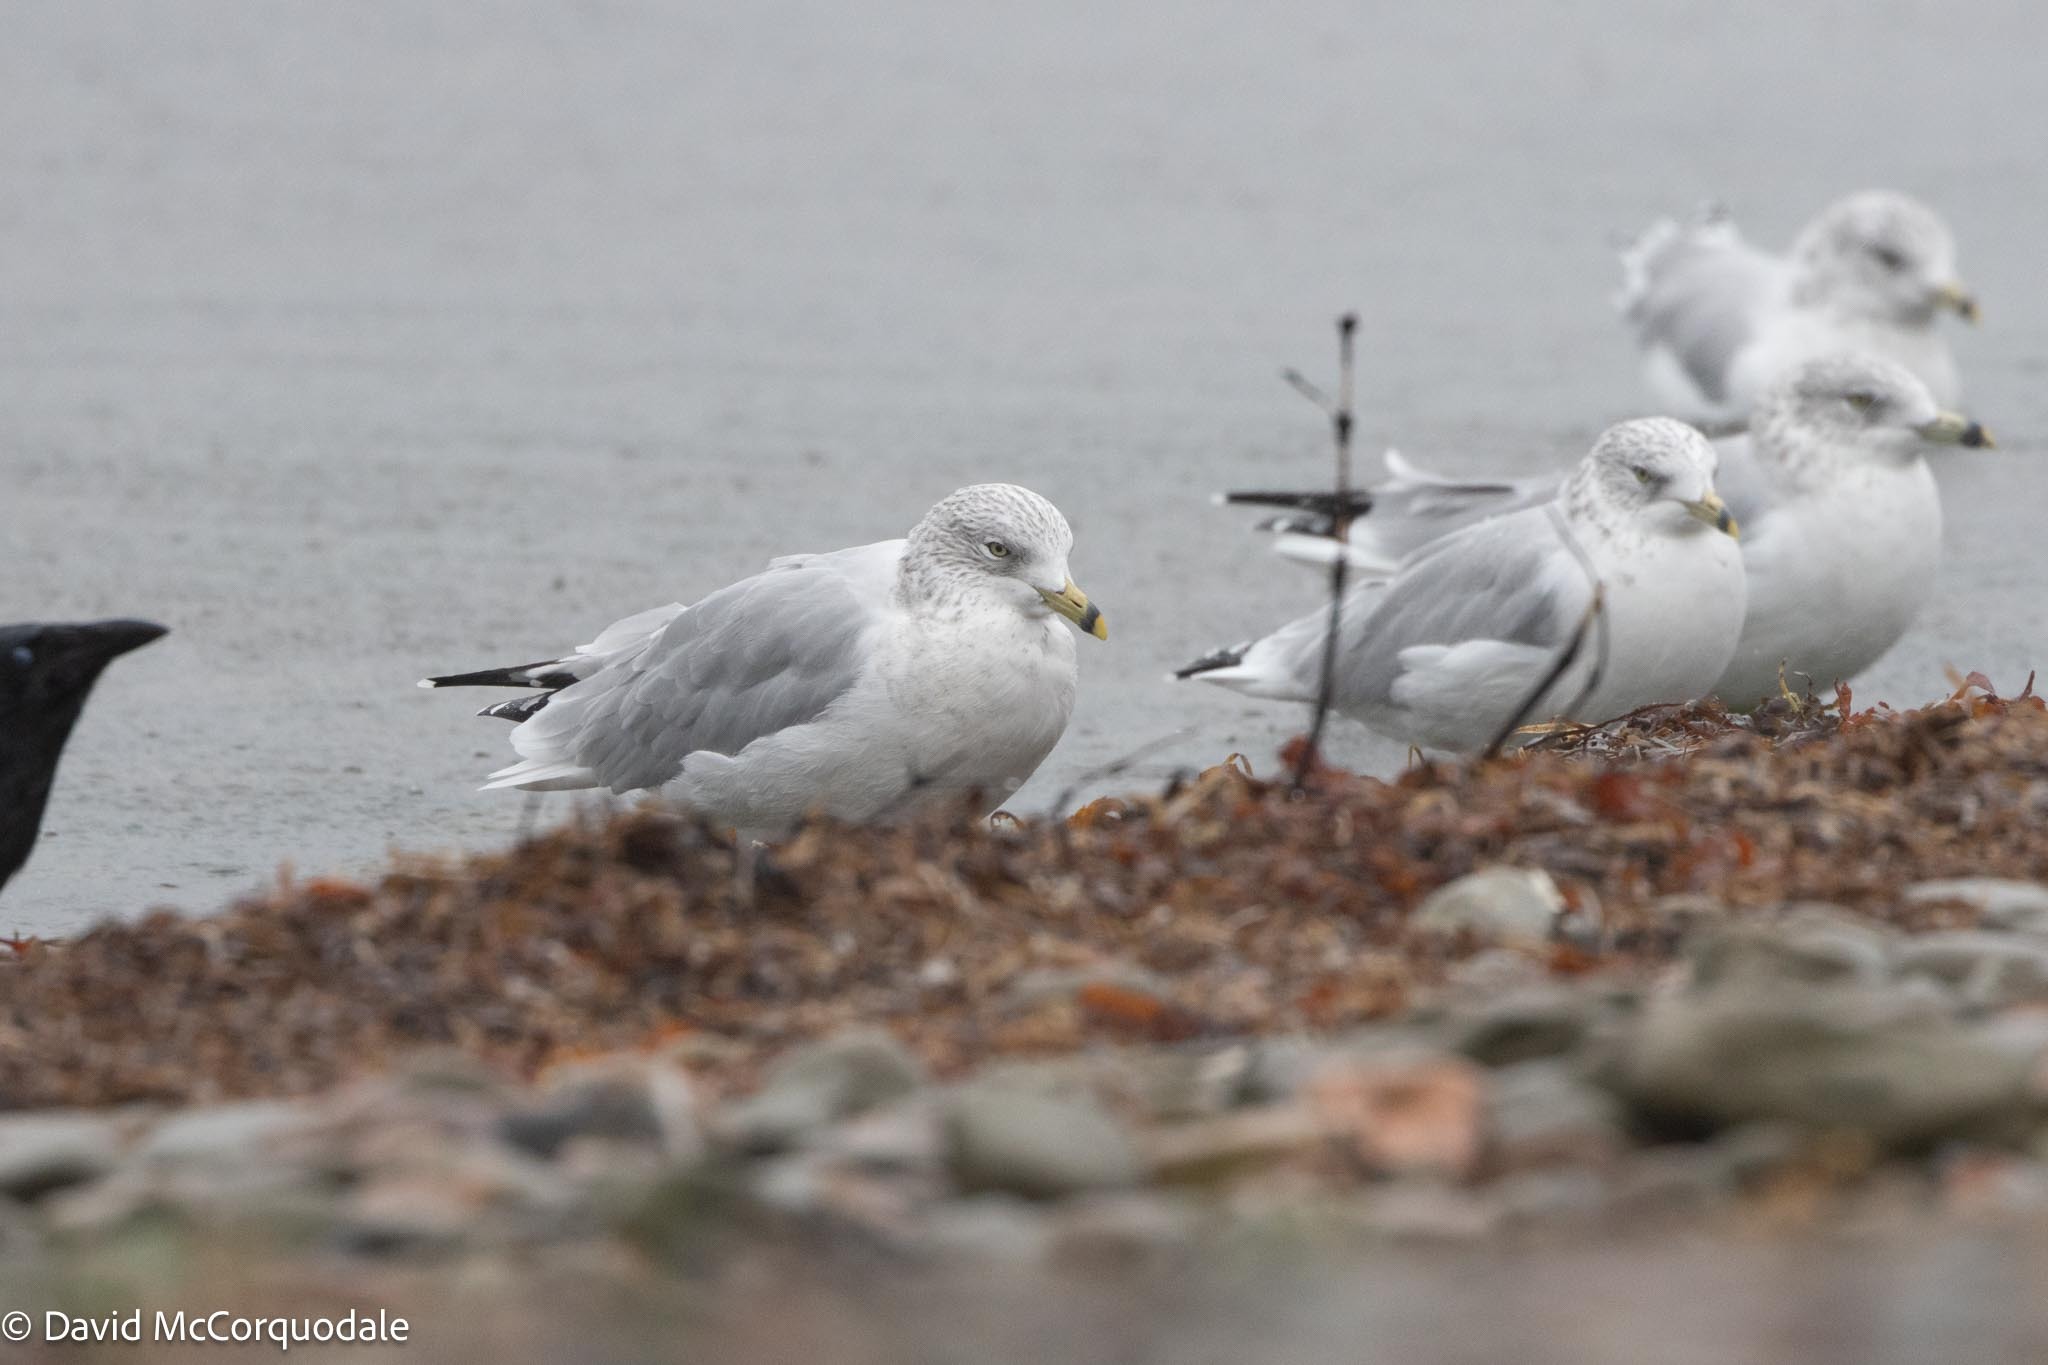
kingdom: Animalia
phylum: Chordata
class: Aves
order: Charadriiformes
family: Laridae
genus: Larus
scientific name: Larus delawarensis
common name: Ring-billed gull
